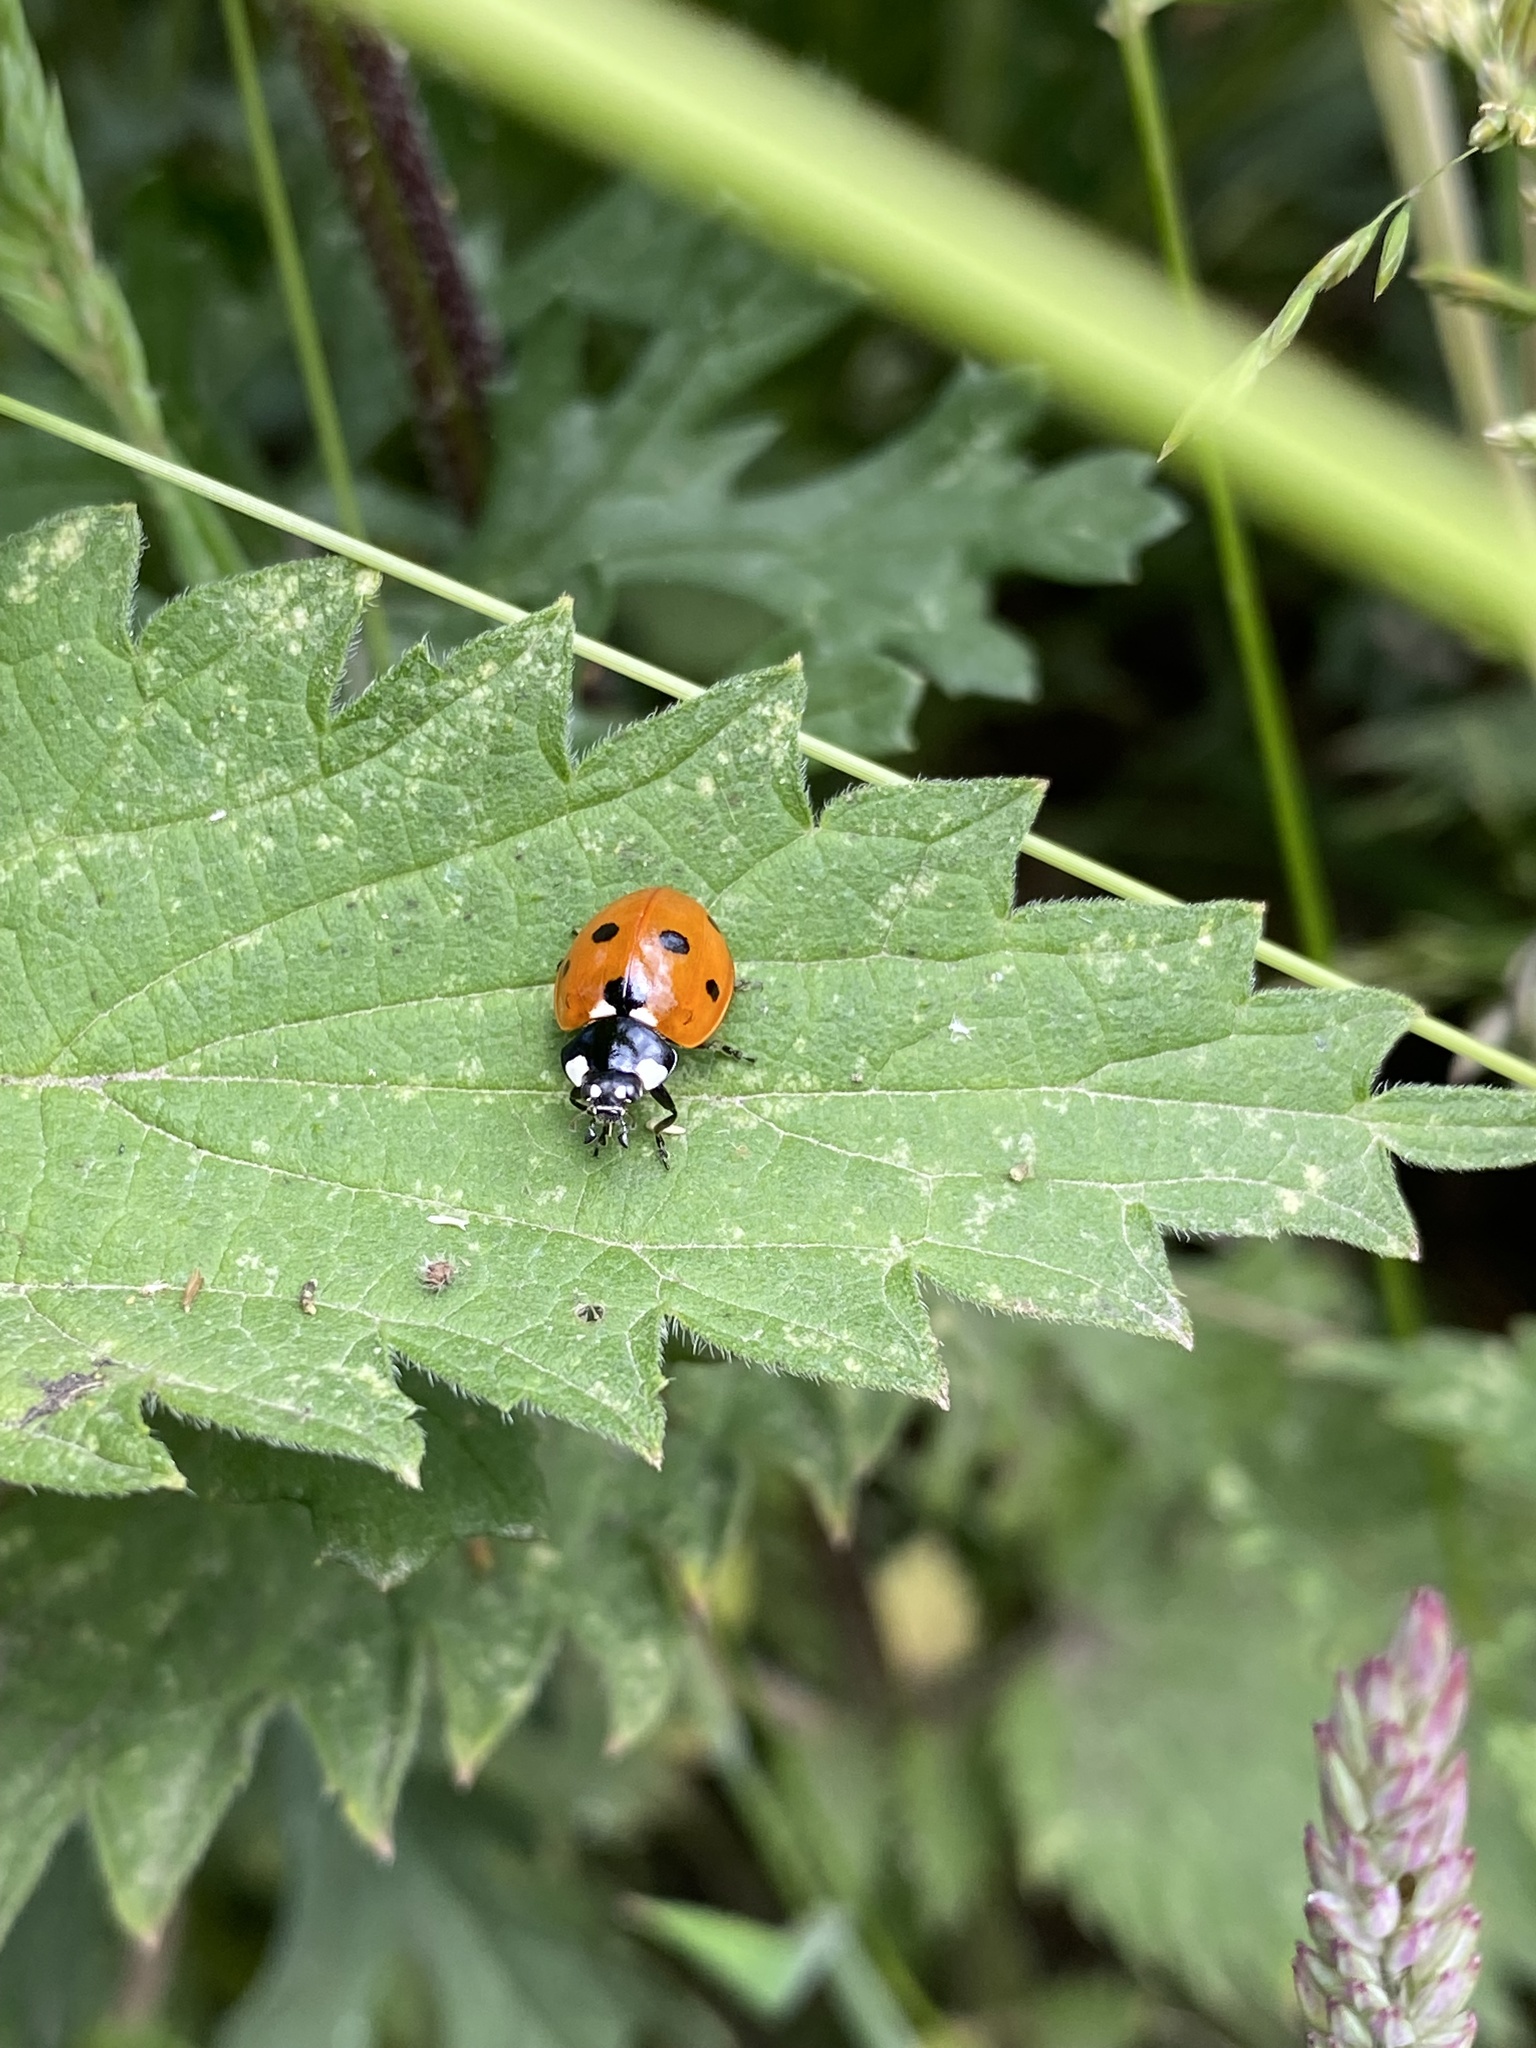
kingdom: Animalia
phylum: Arthropoda
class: Insecta
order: Coleoptera
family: Coccinellidae
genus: Coccinella
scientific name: Coccinella septempunctata
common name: Sevenspotted lady beetle
